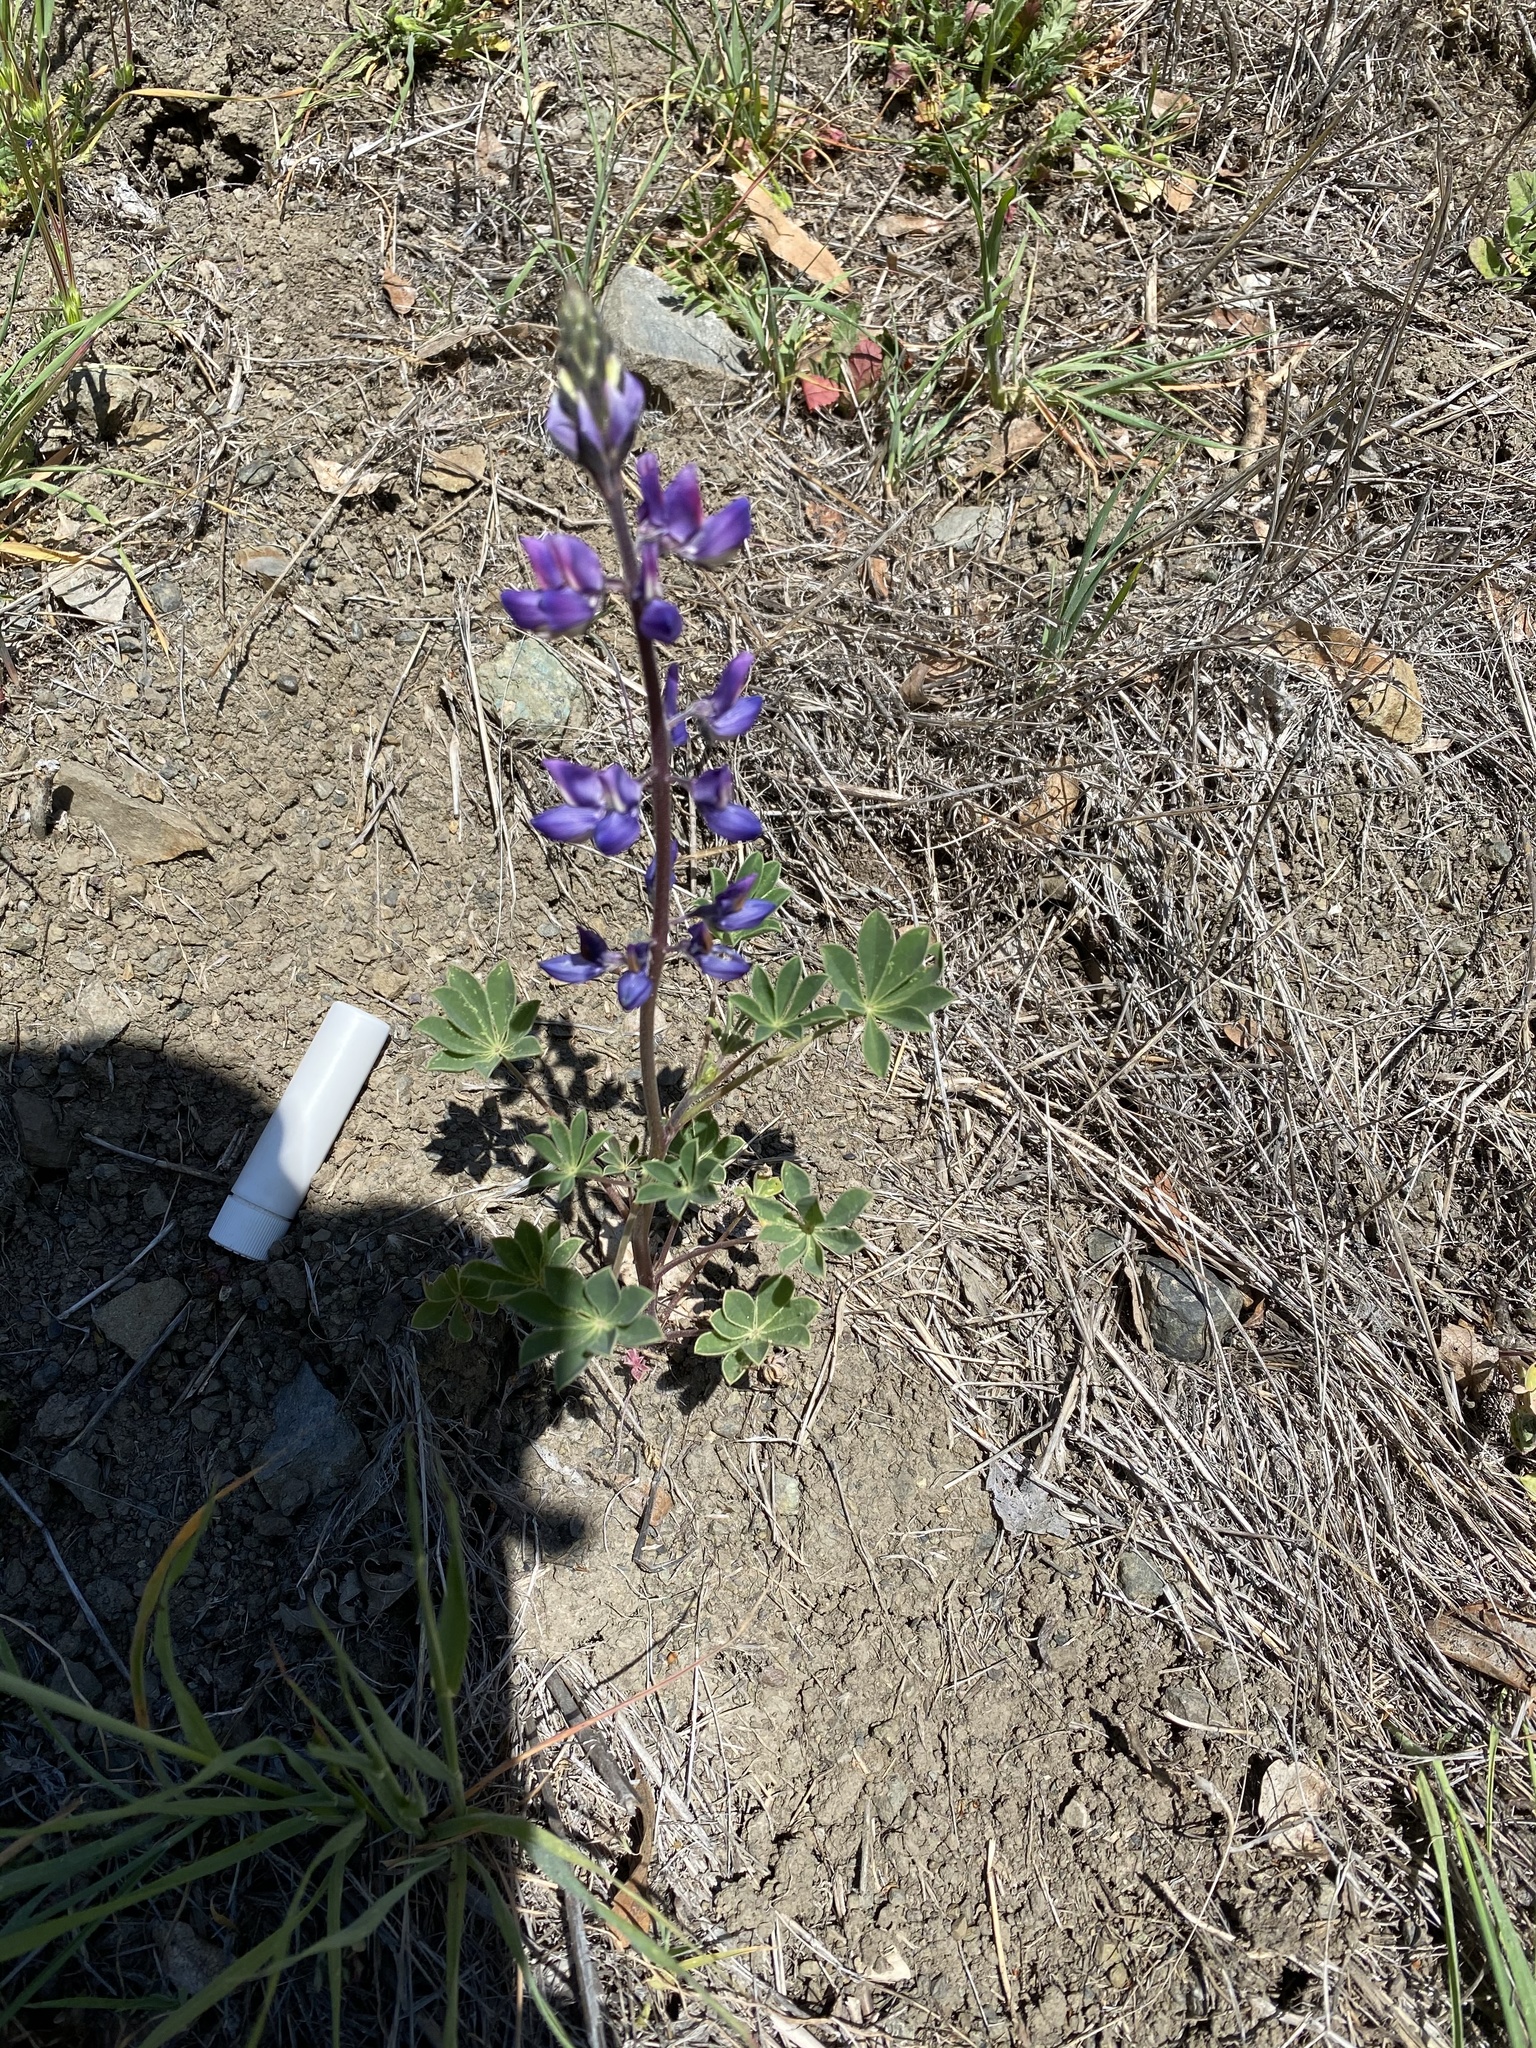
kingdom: Plantae
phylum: Tracheophyta
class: Magnoliopsida
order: Fabales
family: Fabaceae
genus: Lupinus
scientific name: Lupinus succulentus
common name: Arroyo lupine
